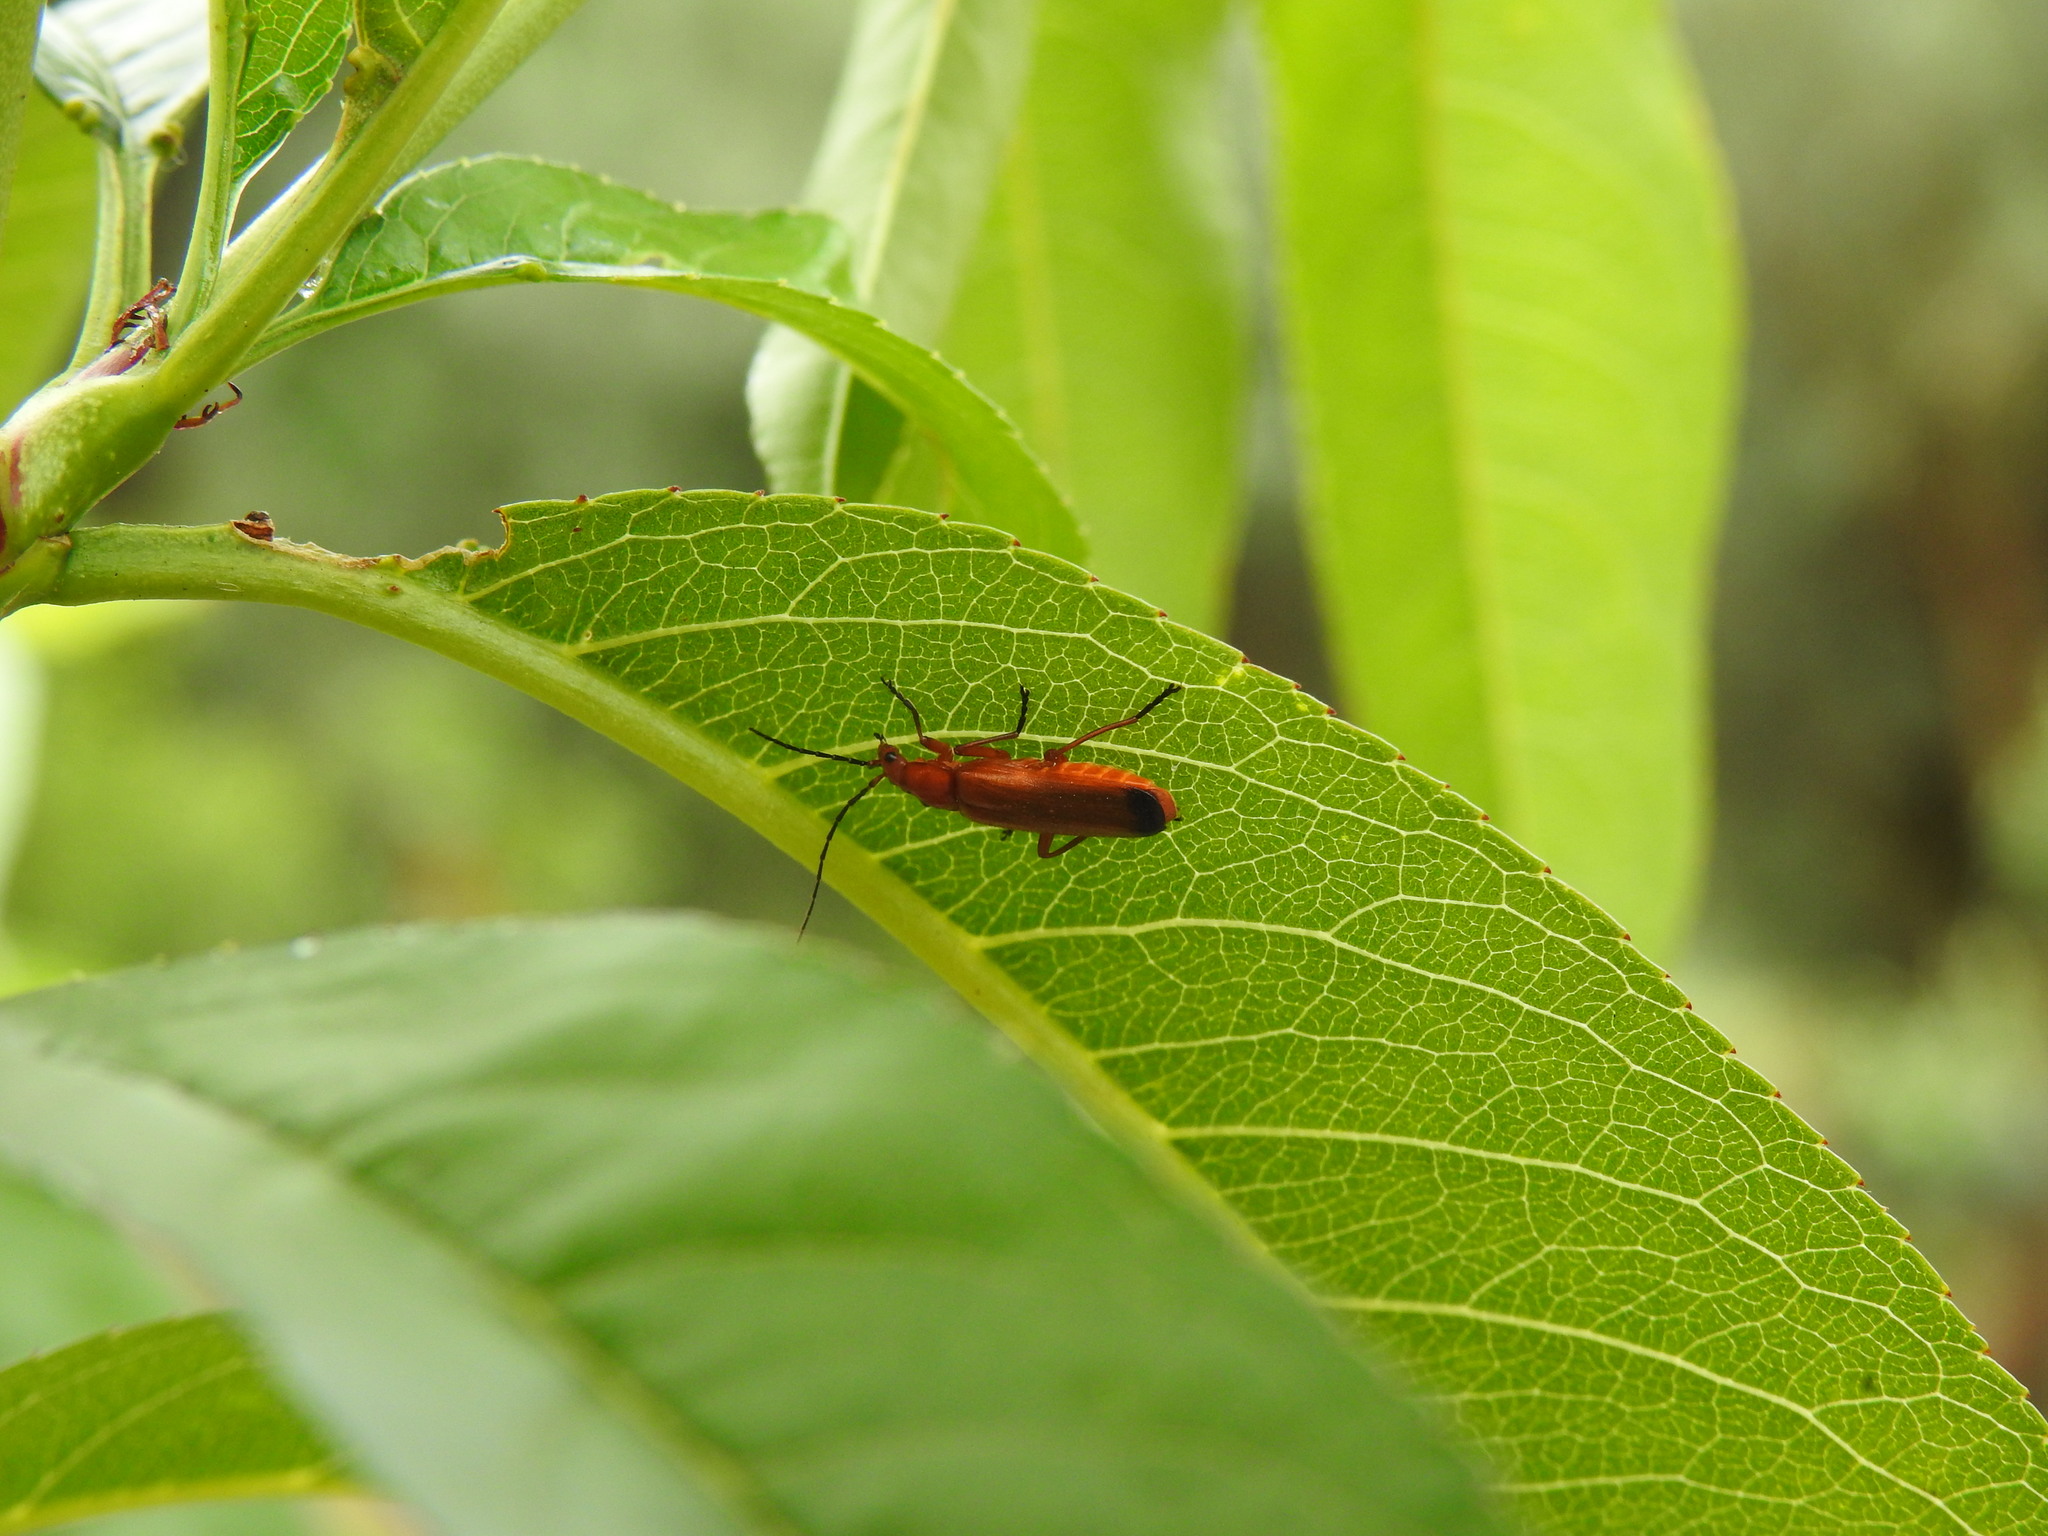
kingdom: Animalia
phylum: Arthropoda
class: Insecta
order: Coleoptera
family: Cantharidae
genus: Rhagonycha
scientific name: Rhagonycha fulva
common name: Common red soldier beetle
